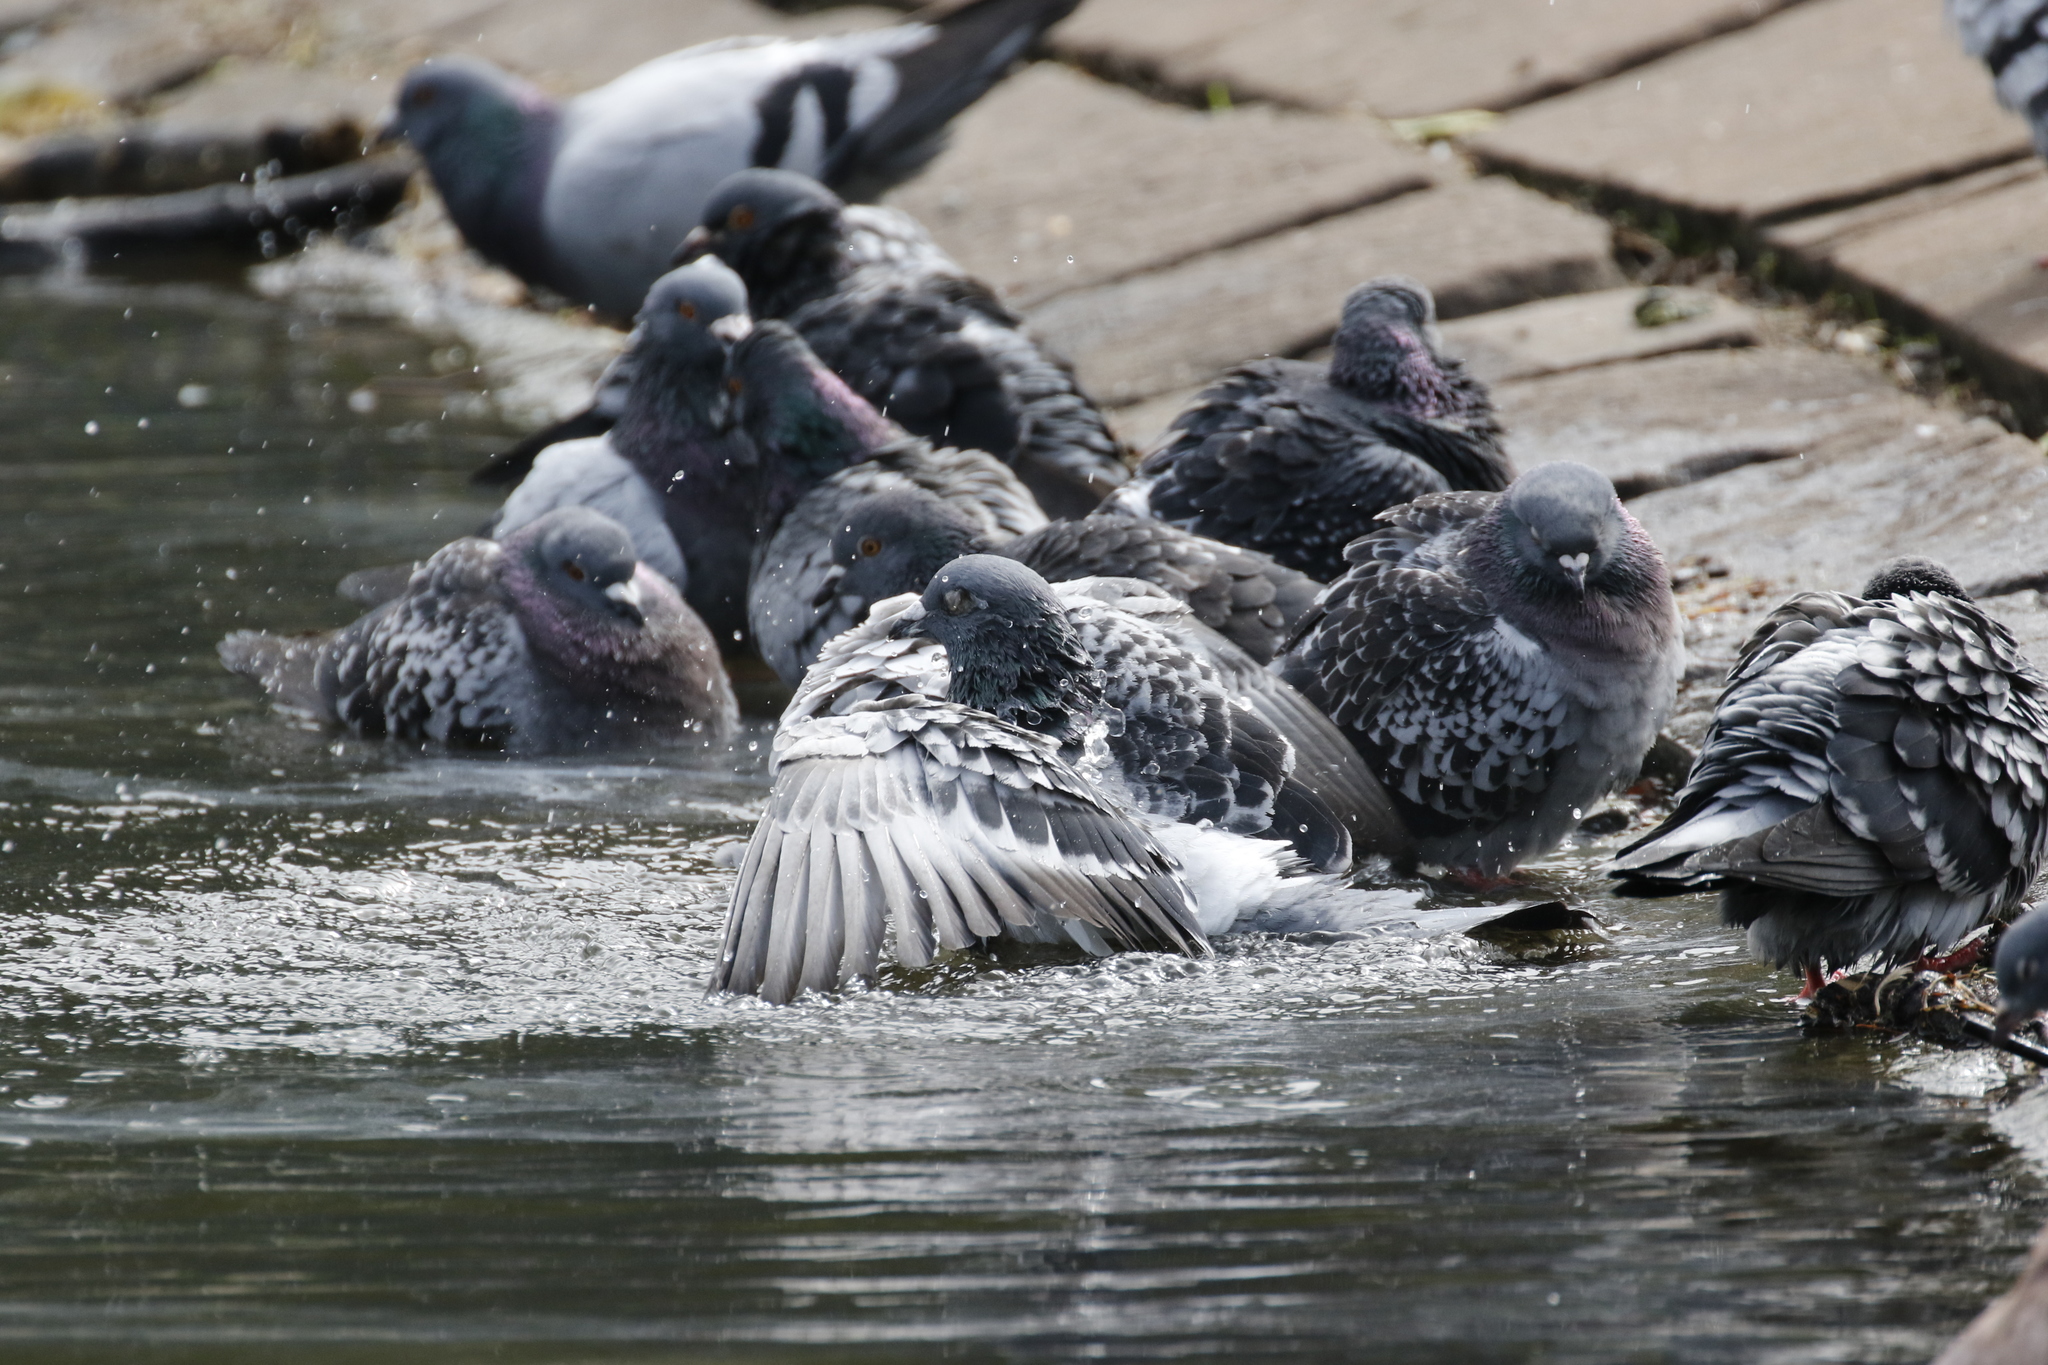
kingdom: Animalia
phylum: Chordata
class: Aves
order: Columbiformes
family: Columbidae
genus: Columba
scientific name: Columba livia
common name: Rock pigeon
